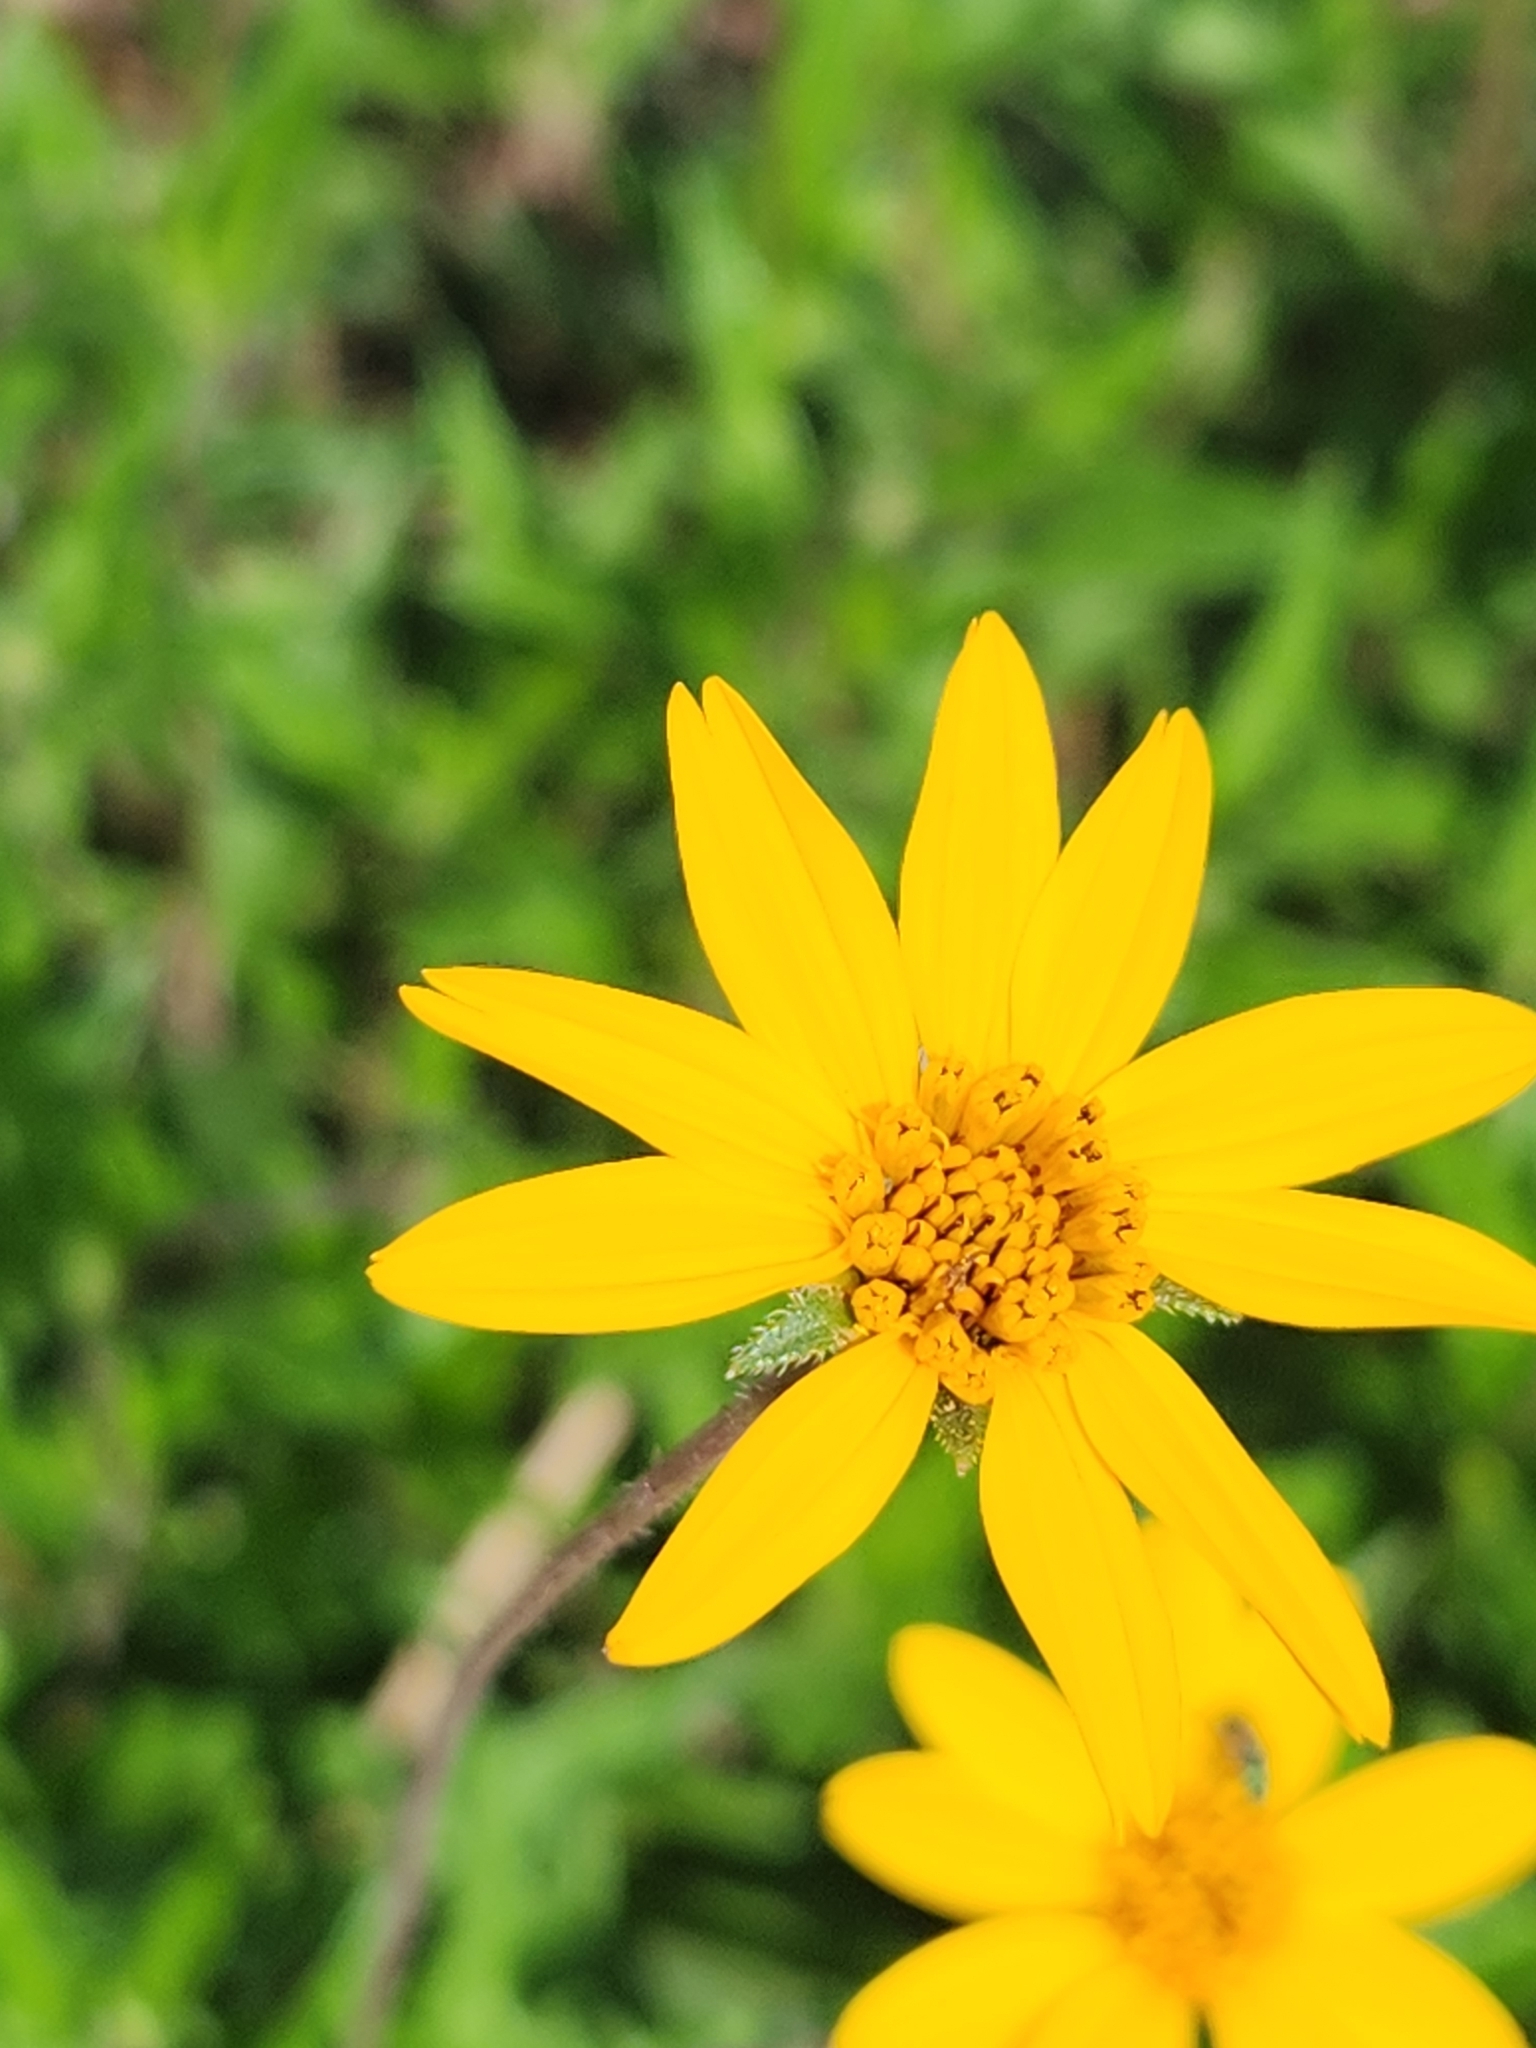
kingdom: Plantae
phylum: Tracheophyta
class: Magnoliopsida
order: Asterales
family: Asteraceae
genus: Wedelia
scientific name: Wedelia acapulcensis
